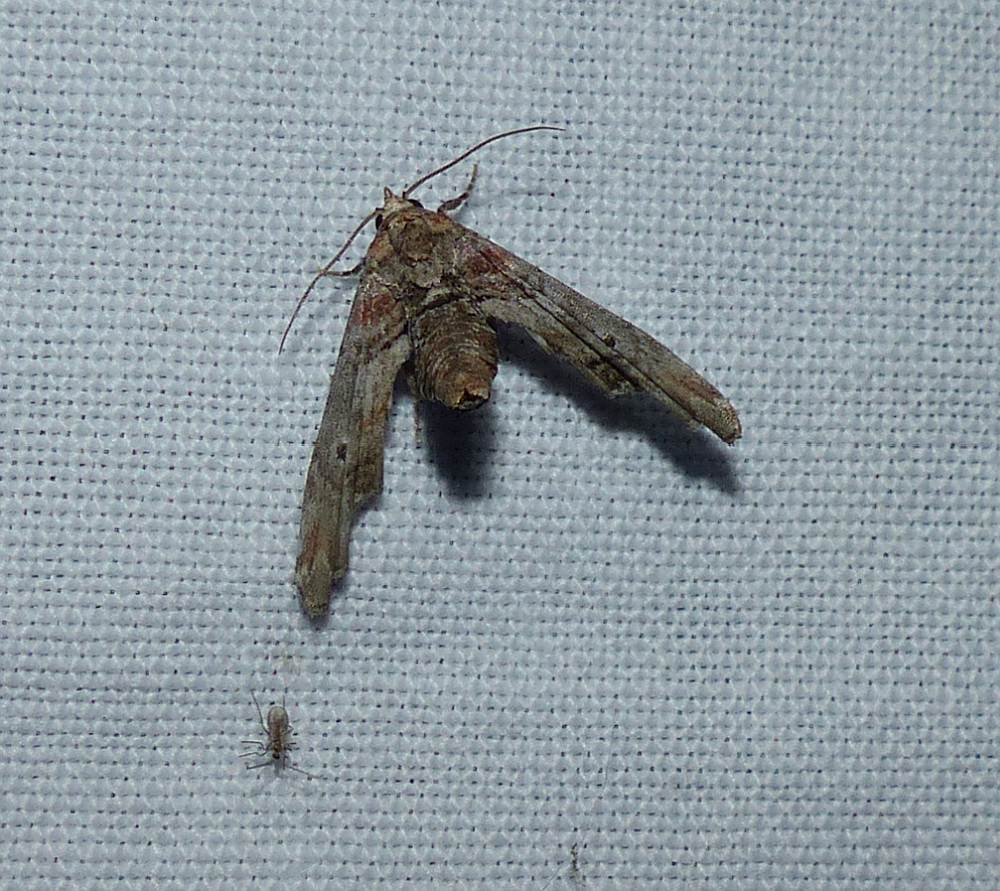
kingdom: Animalia
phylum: Arthropoda
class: Insecta
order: Lepidoptera
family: Euteliidae
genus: Marathyssa
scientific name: Marathyssa inficita
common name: Dark marathyssa moth
